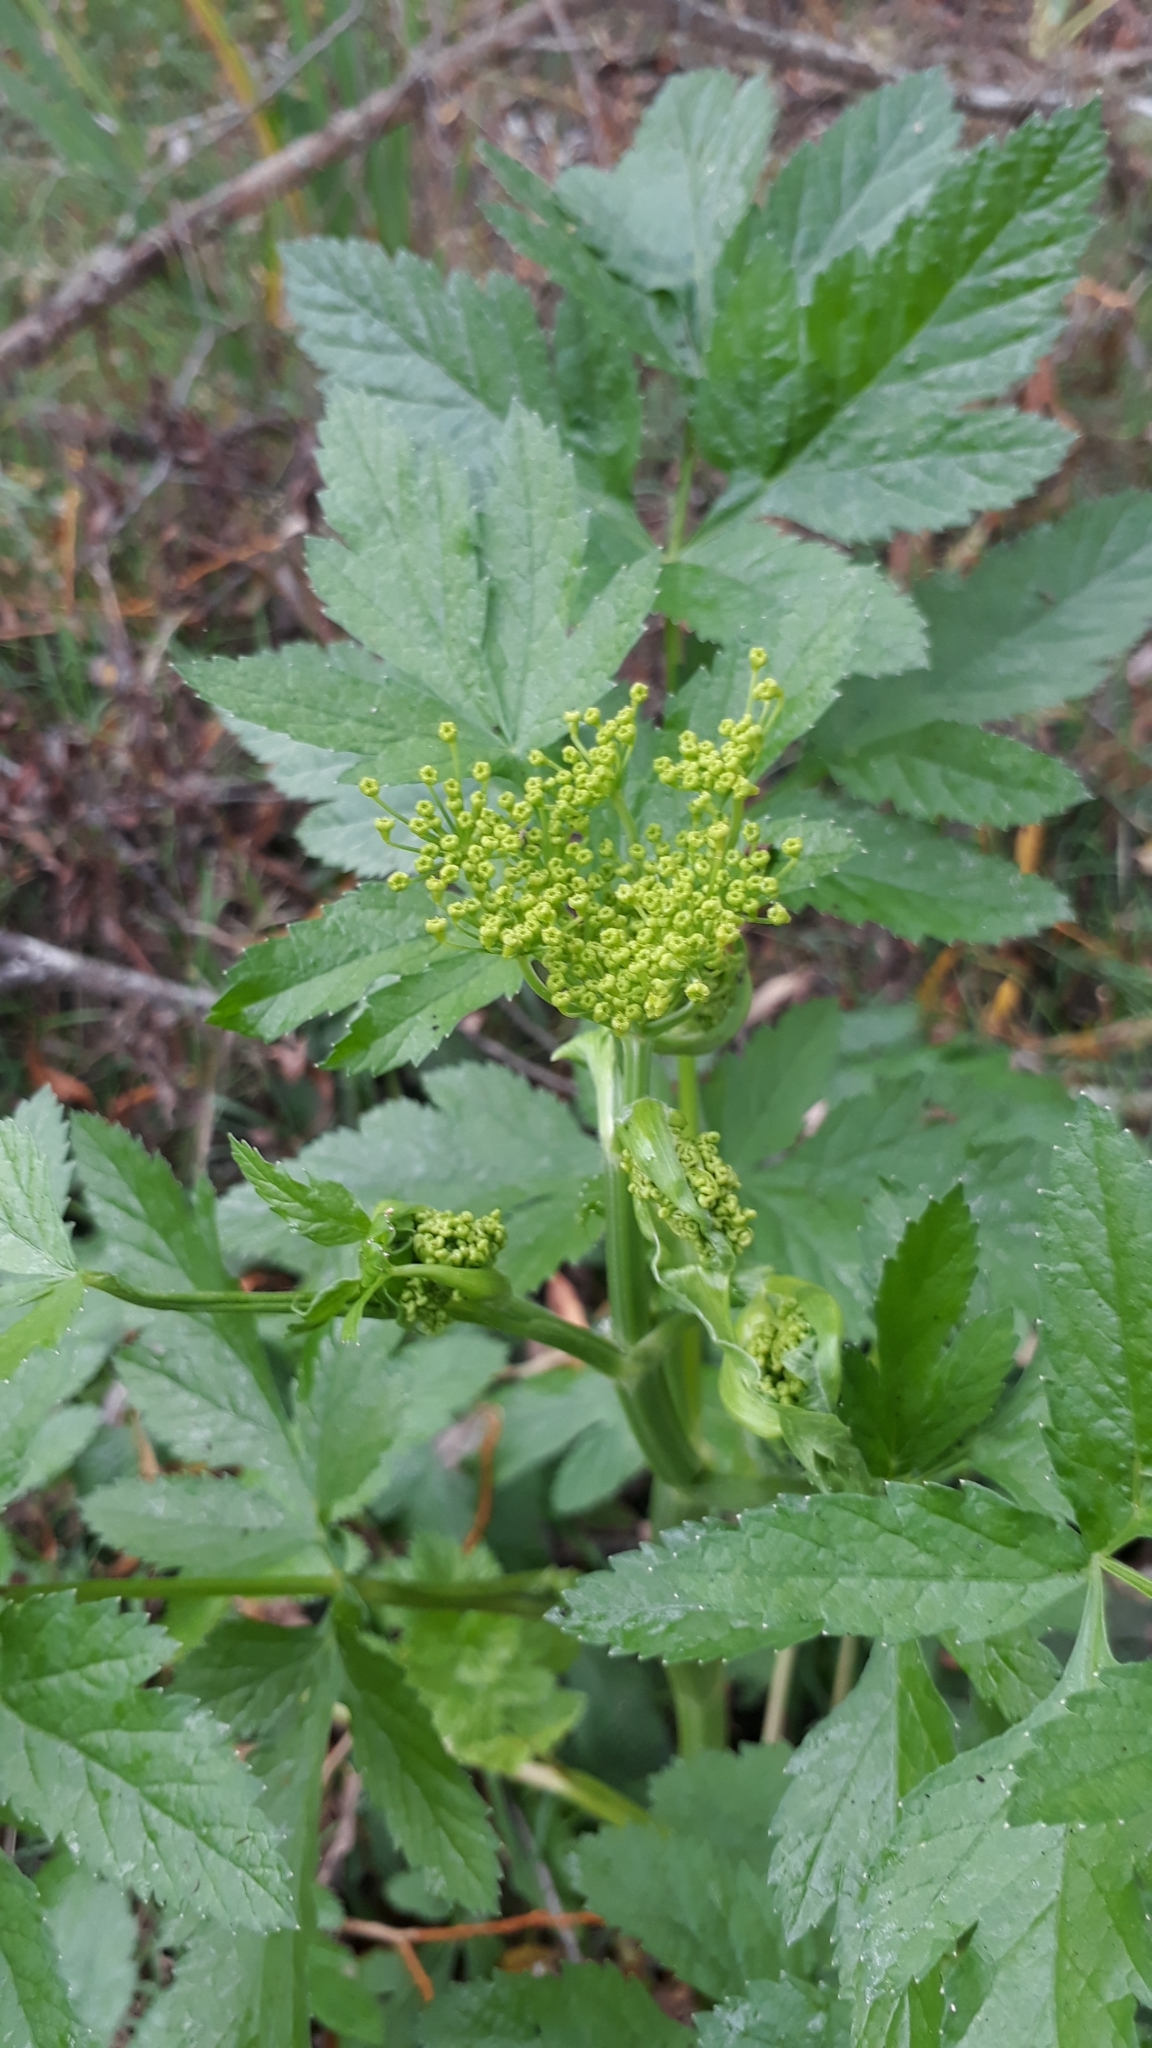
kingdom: Plantae
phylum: Tracheophyta
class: Magnoliopsida
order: Apiales
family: Apiaceae
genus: Pastinaca
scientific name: Pastinaca sativa
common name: Wild parsnip
